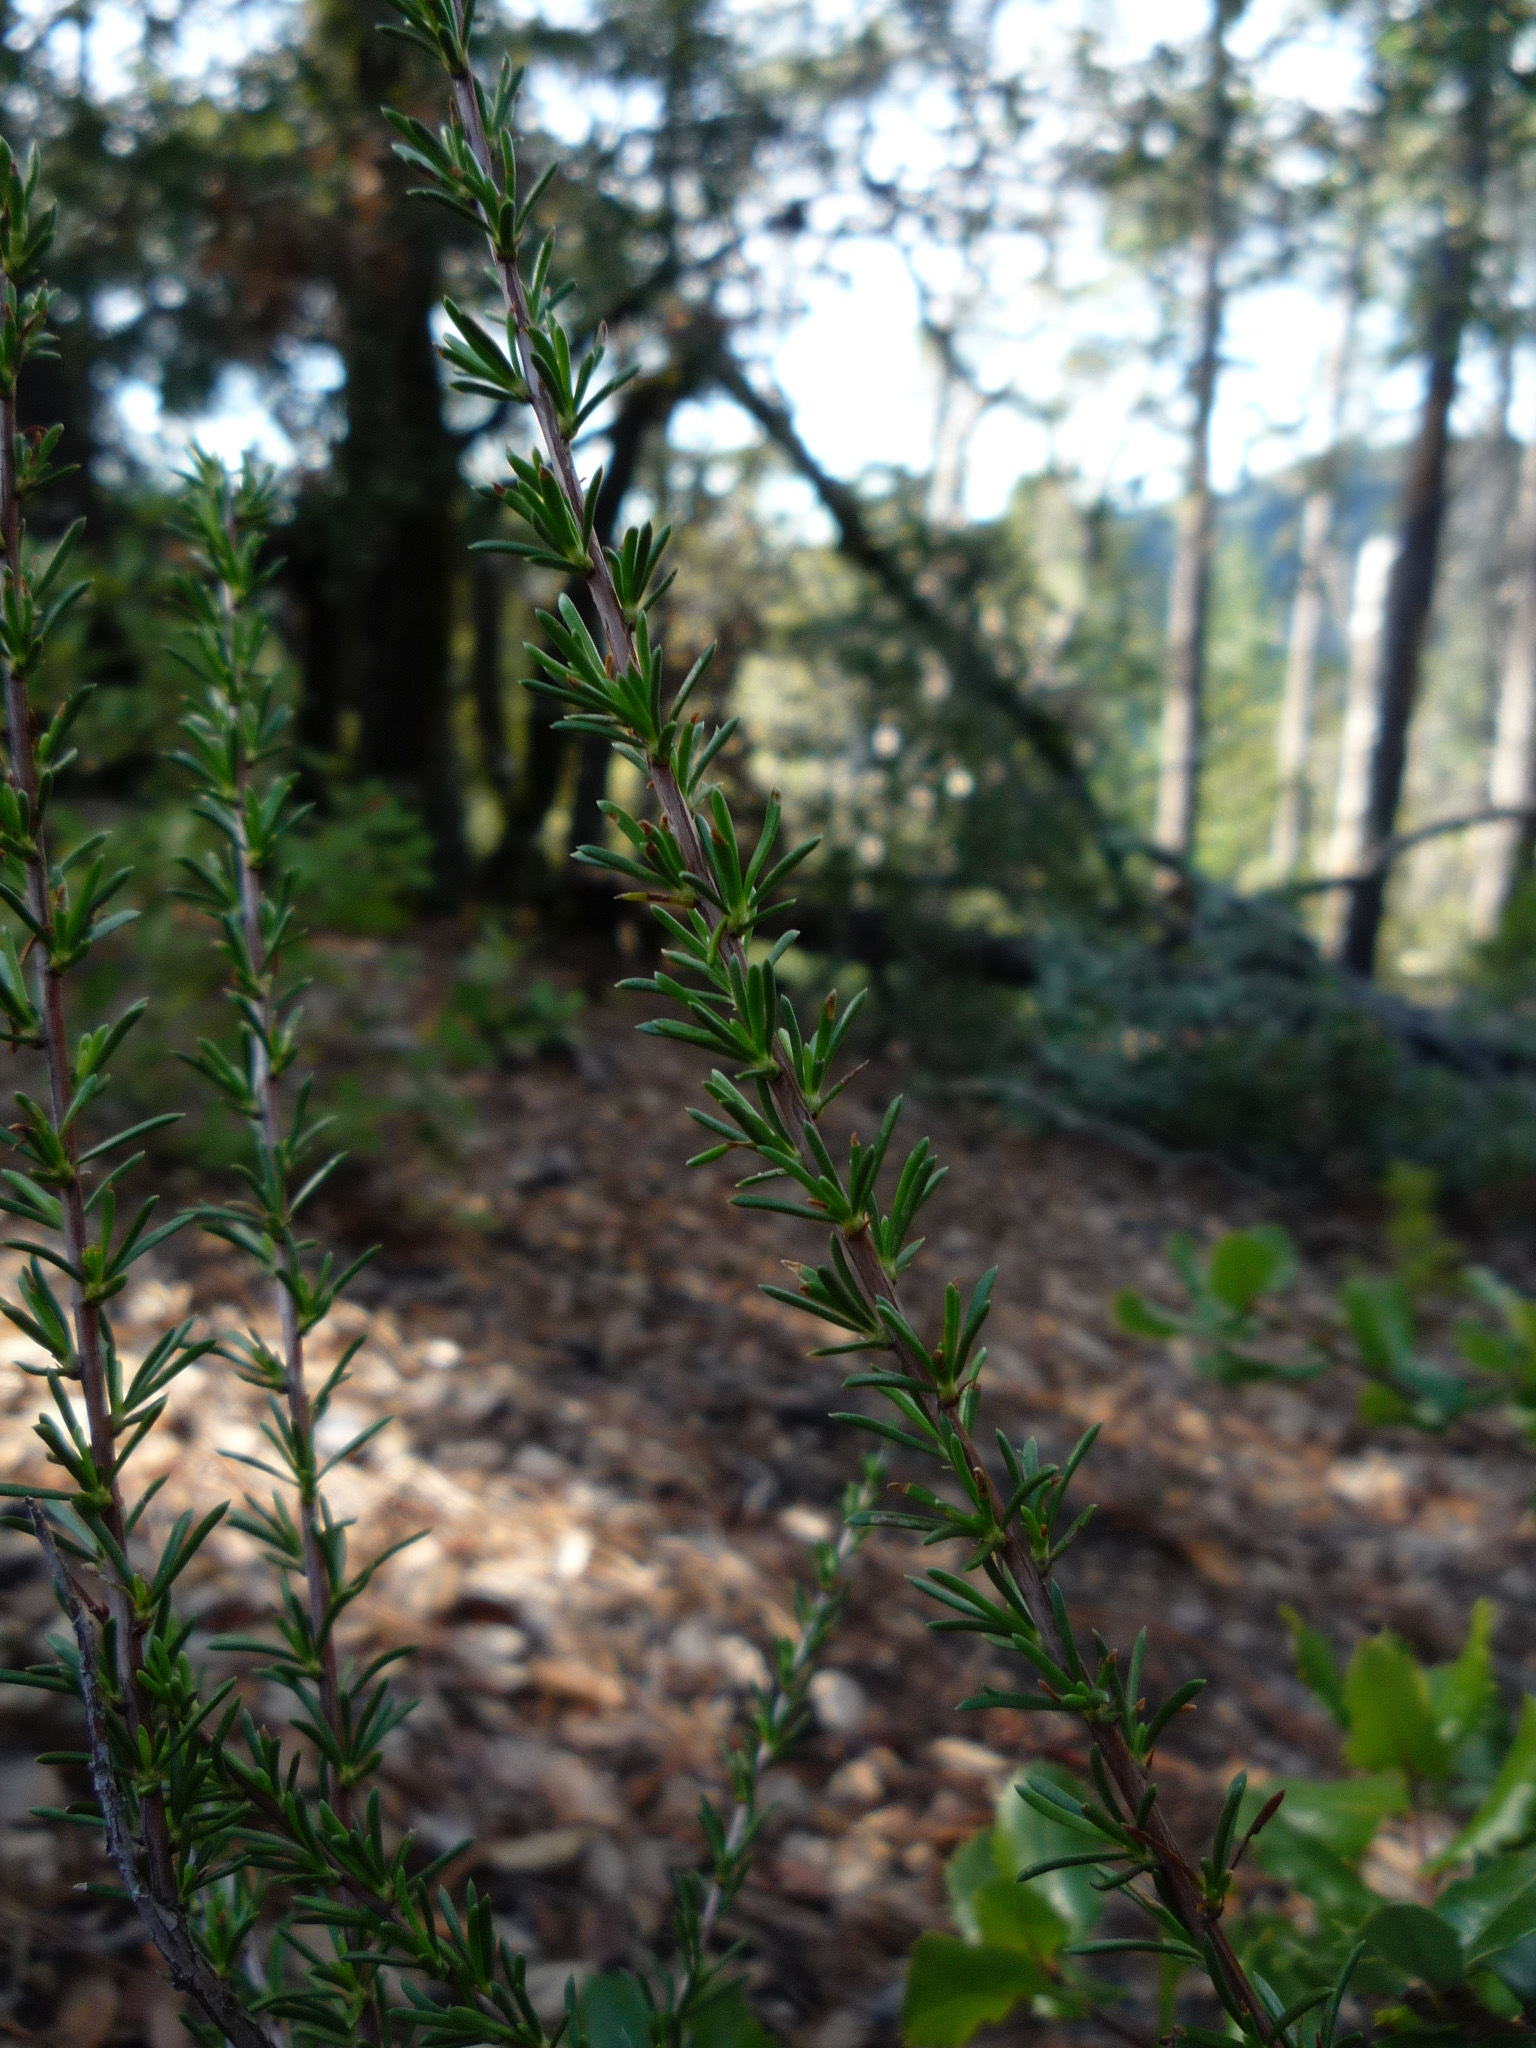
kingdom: Plantae
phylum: Tracheophyta
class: Magnoliopsida
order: Rosales
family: Rosaceae
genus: Adenostoma
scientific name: Adenostoma fasciculatum
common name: Chamise
